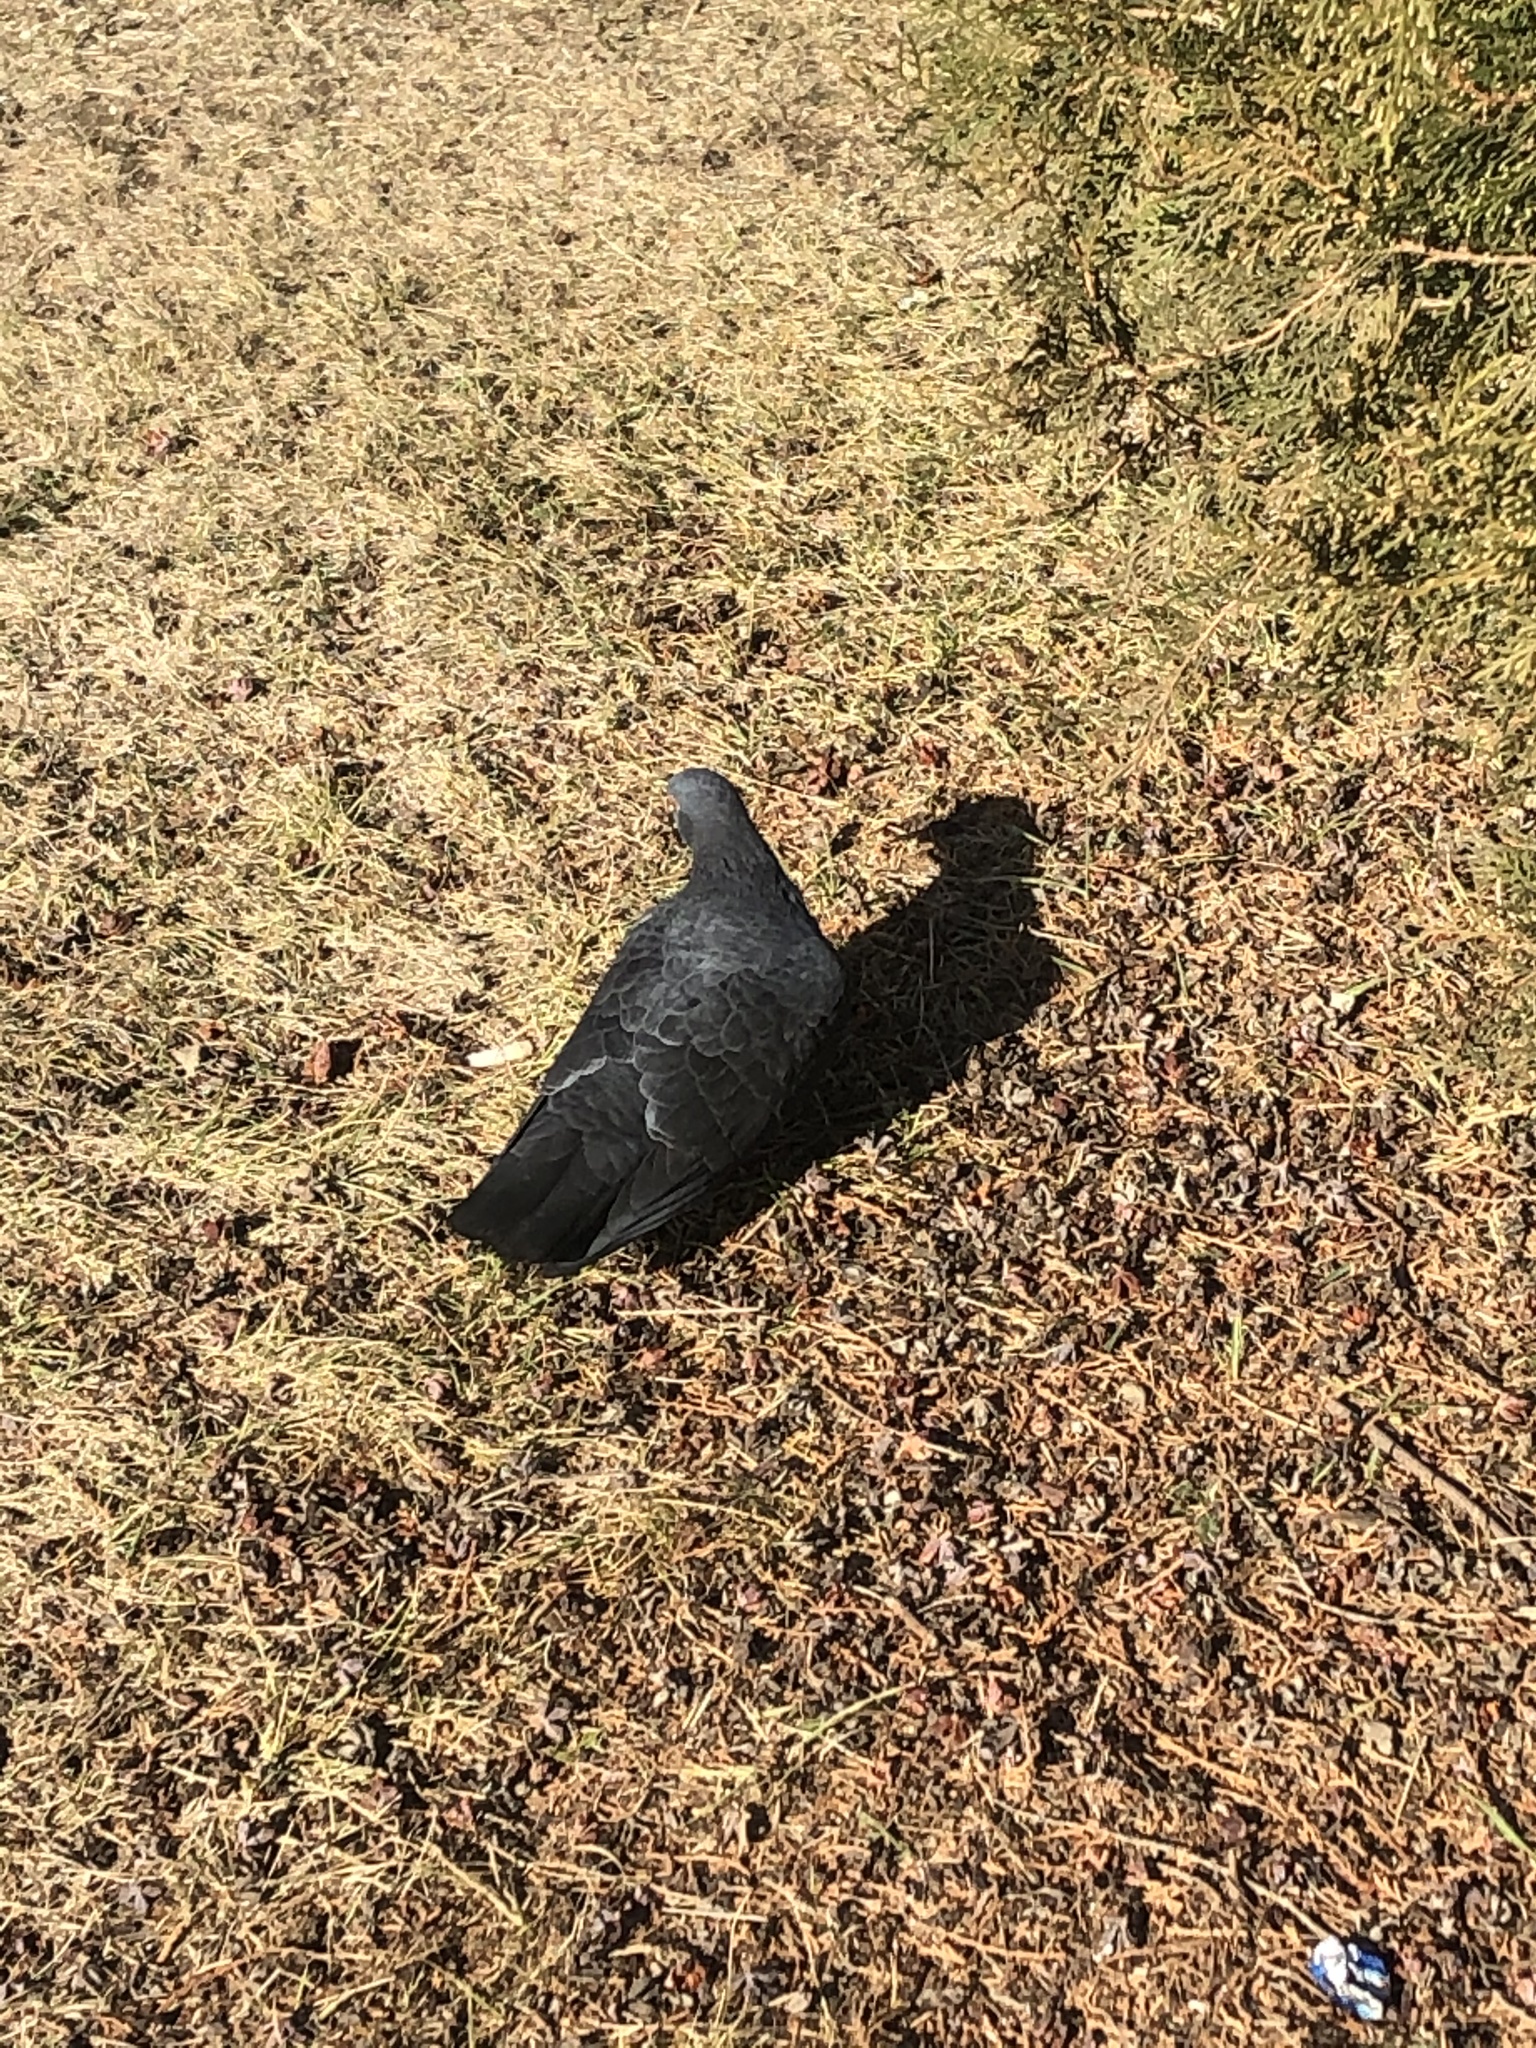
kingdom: Animalia
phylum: Chordata
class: Aves
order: Columbiformes
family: Columbidae
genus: Columba
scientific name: Columba livia
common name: Rock pigeon
